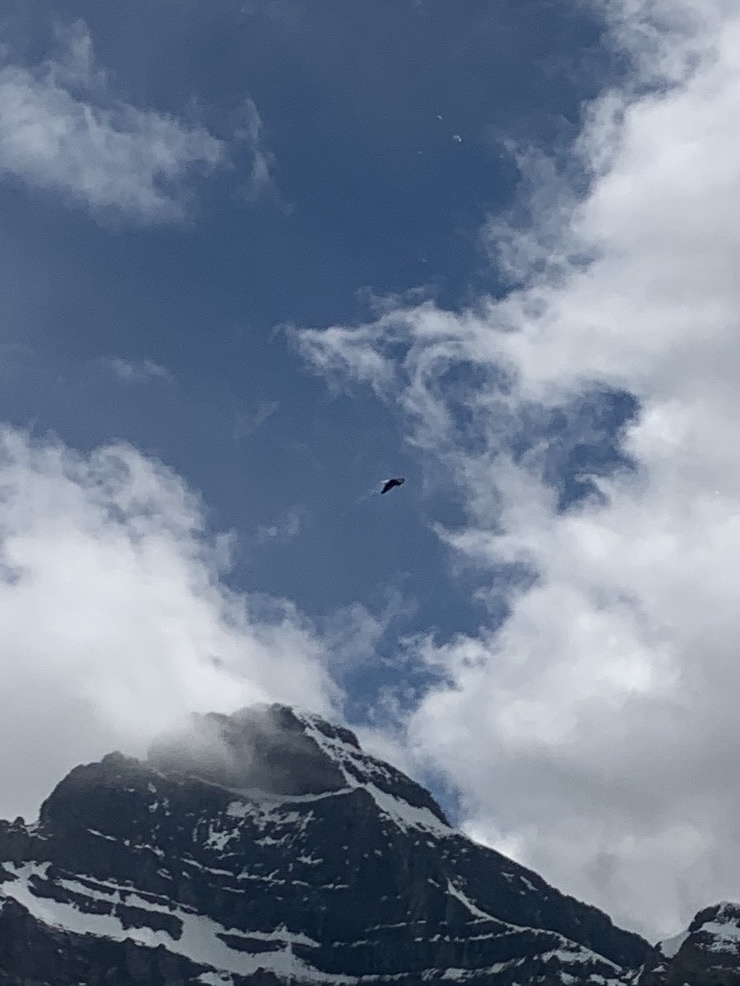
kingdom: Animalia
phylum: Chordata
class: Aves
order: Accipitriformes
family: Accipitridae
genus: Haliaeetus
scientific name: Haliaeetus leucocephalus
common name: Bald eagle
